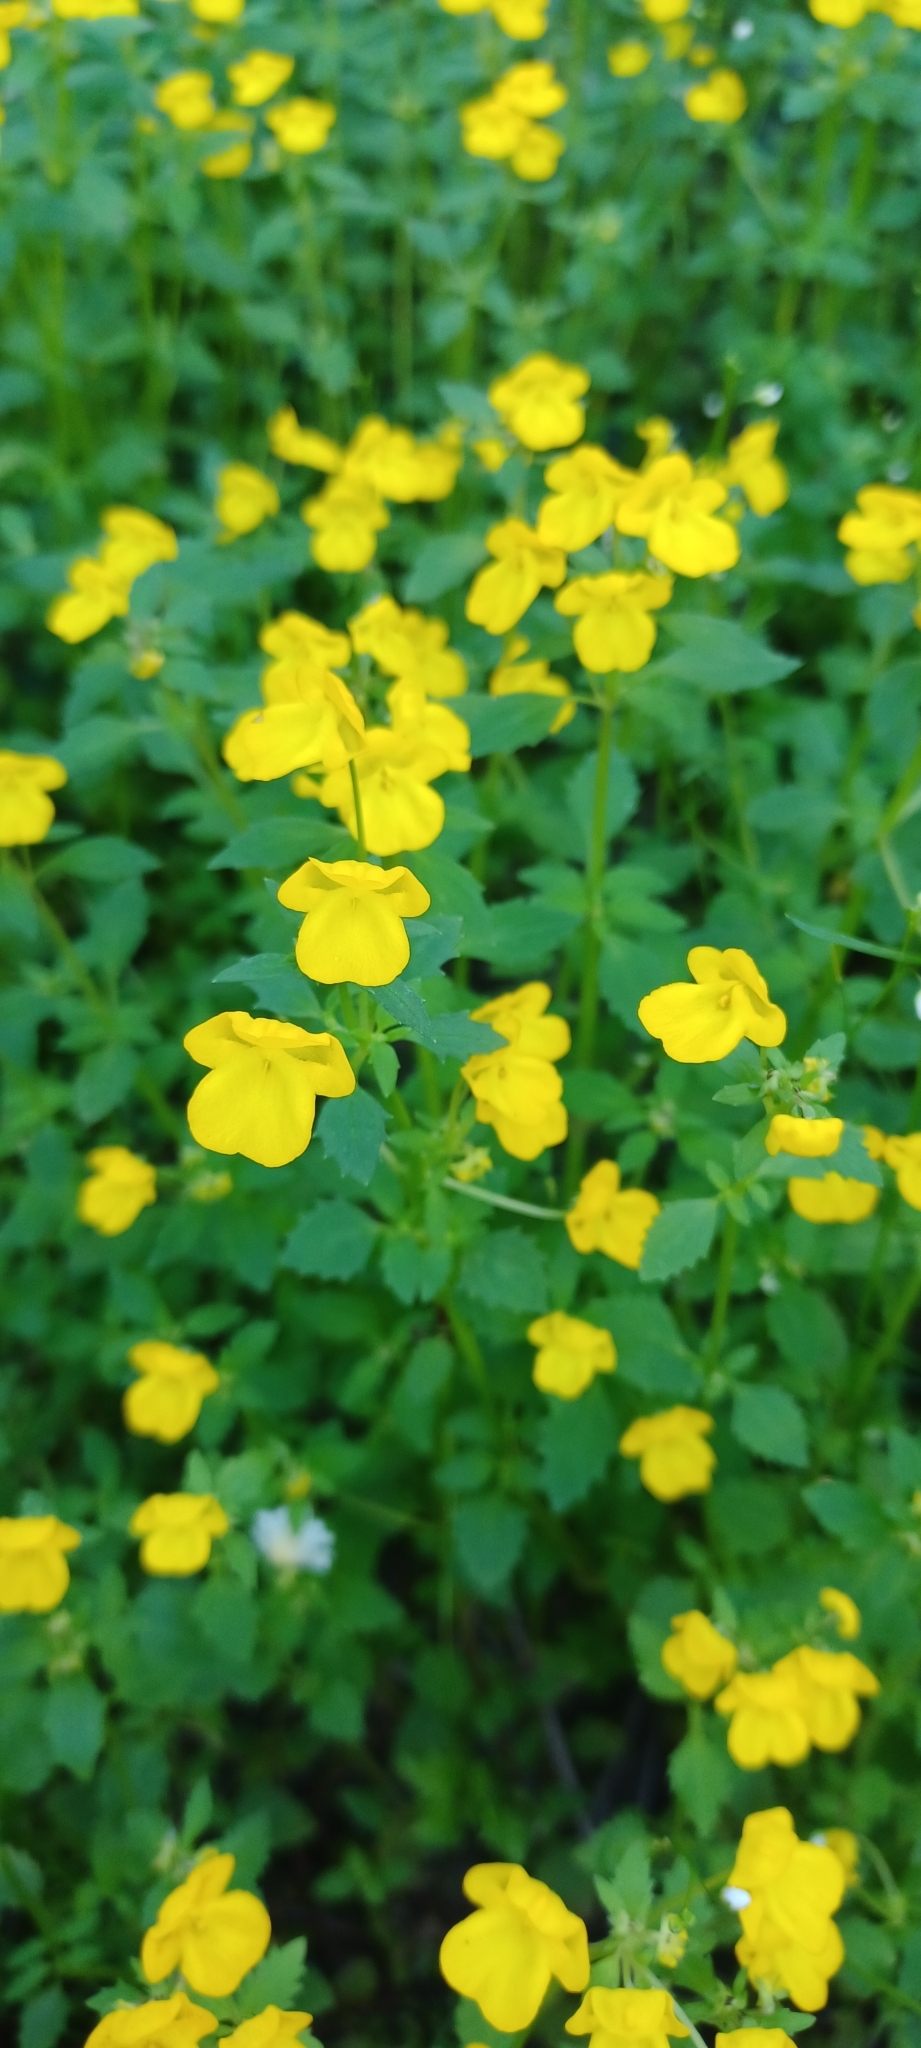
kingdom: Plantae
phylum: Tracheophyta
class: Magnoliopsida
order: Lamiales
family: Scrophulariaceae
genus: Hemimeris
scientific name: Hemimeris racemosa
